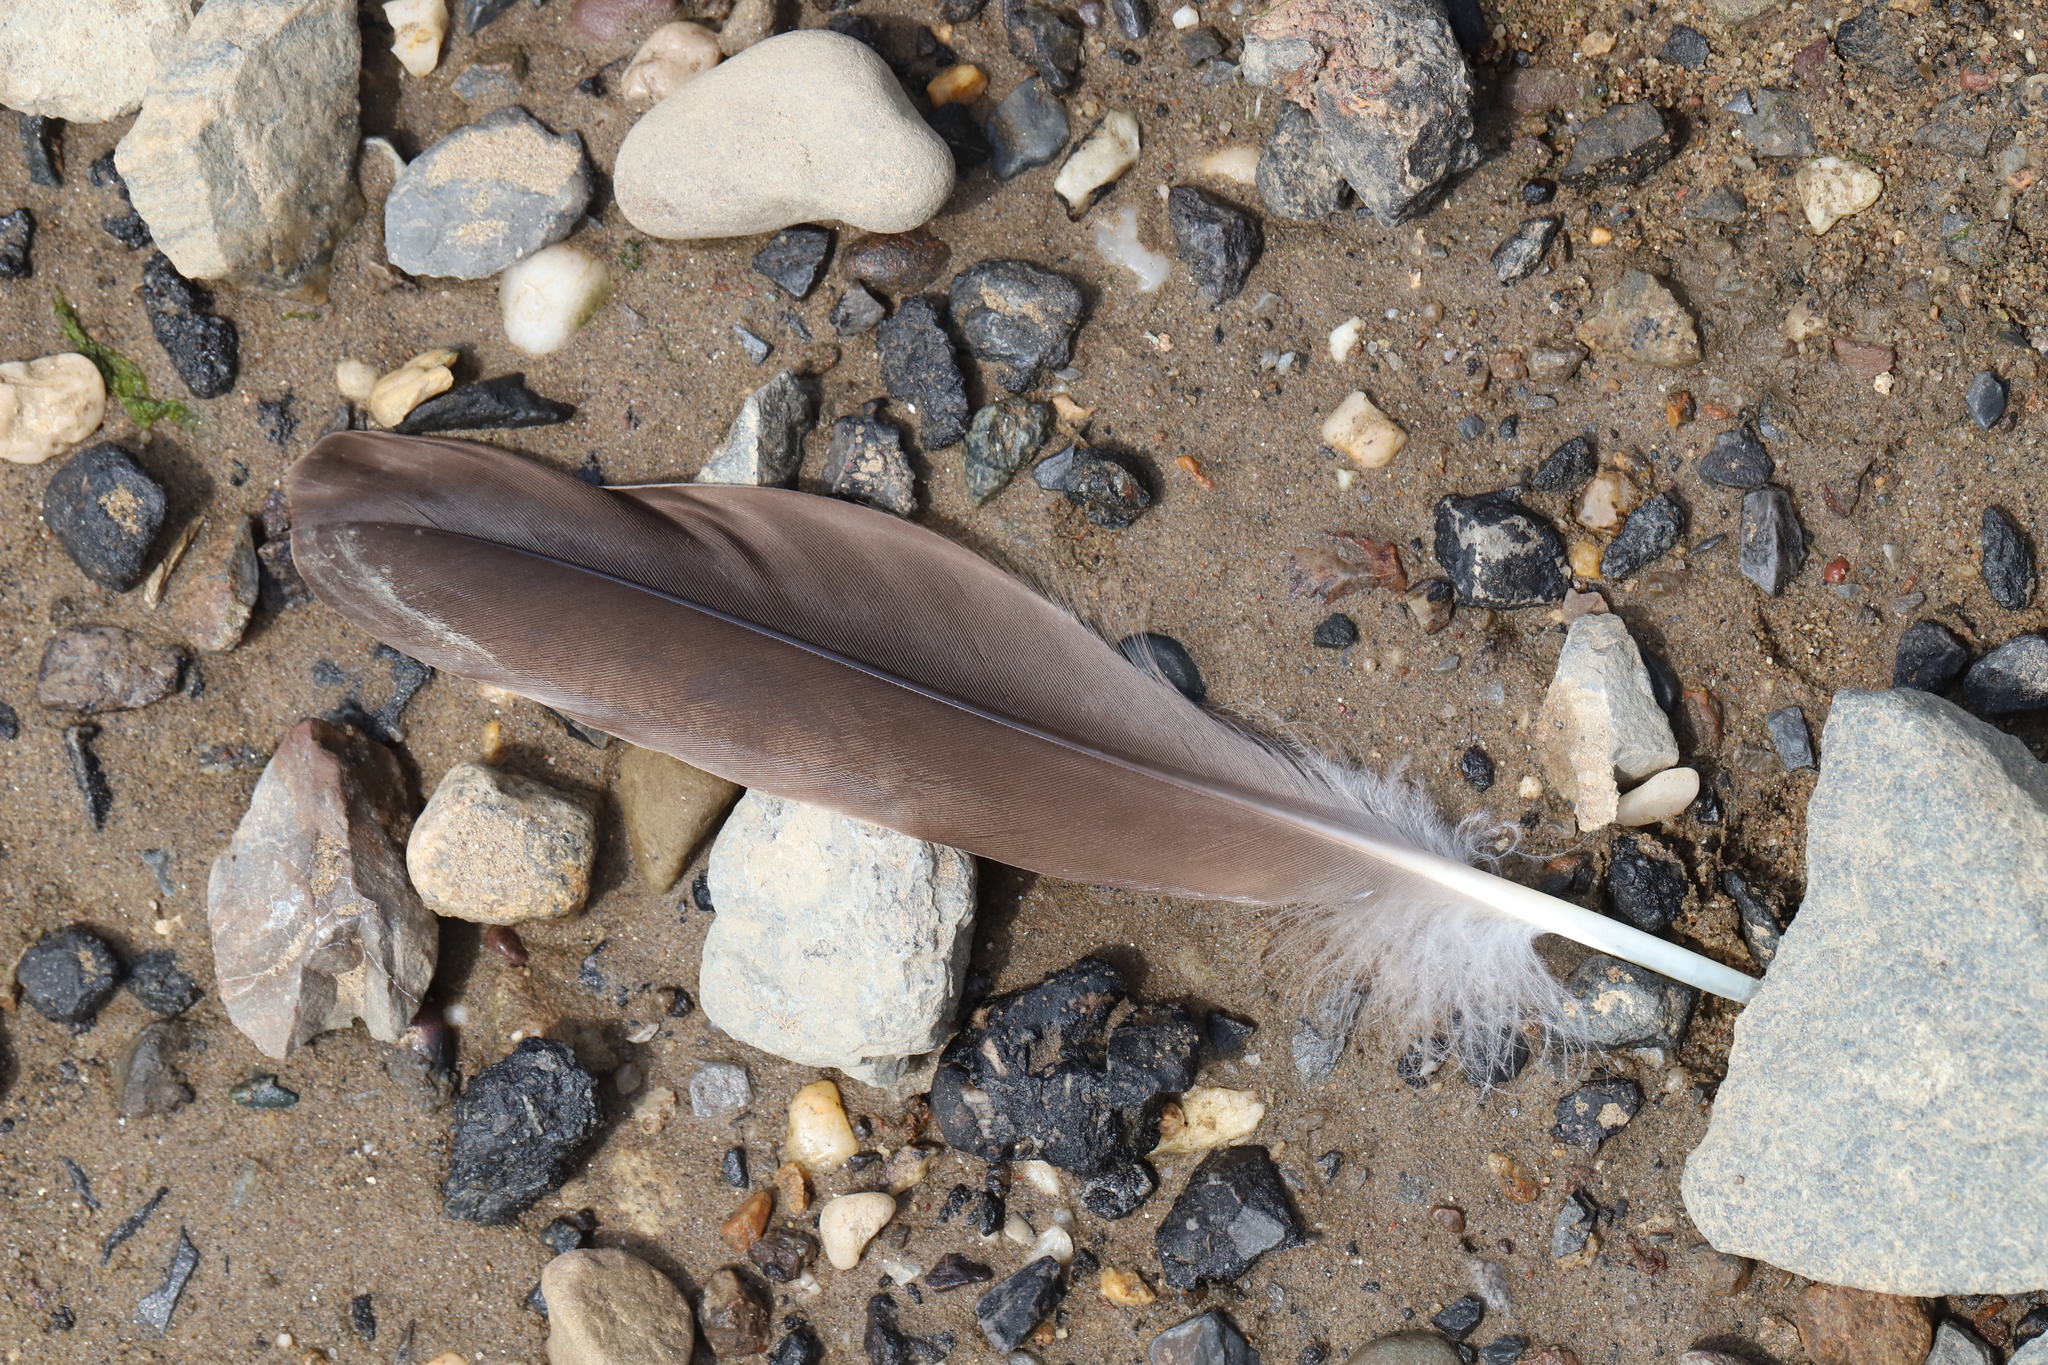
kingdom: Animalia
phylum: Chordata
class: Aves
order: Anseriformes
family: Anatidae
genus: Branta
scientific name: Branta canadensis
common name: Canada goose
